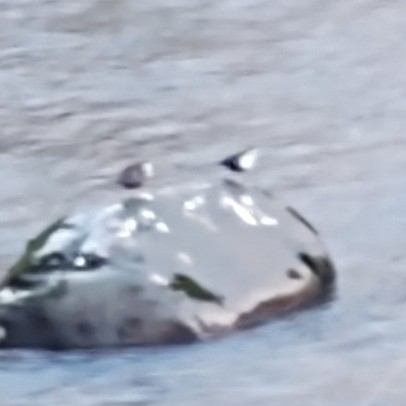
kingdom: Animalia
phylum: Chordata
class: Aves
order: Passeriformes
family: Cinclidae
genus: Cinclus
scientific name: Cinclus cinclus
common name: White-throated dipper
